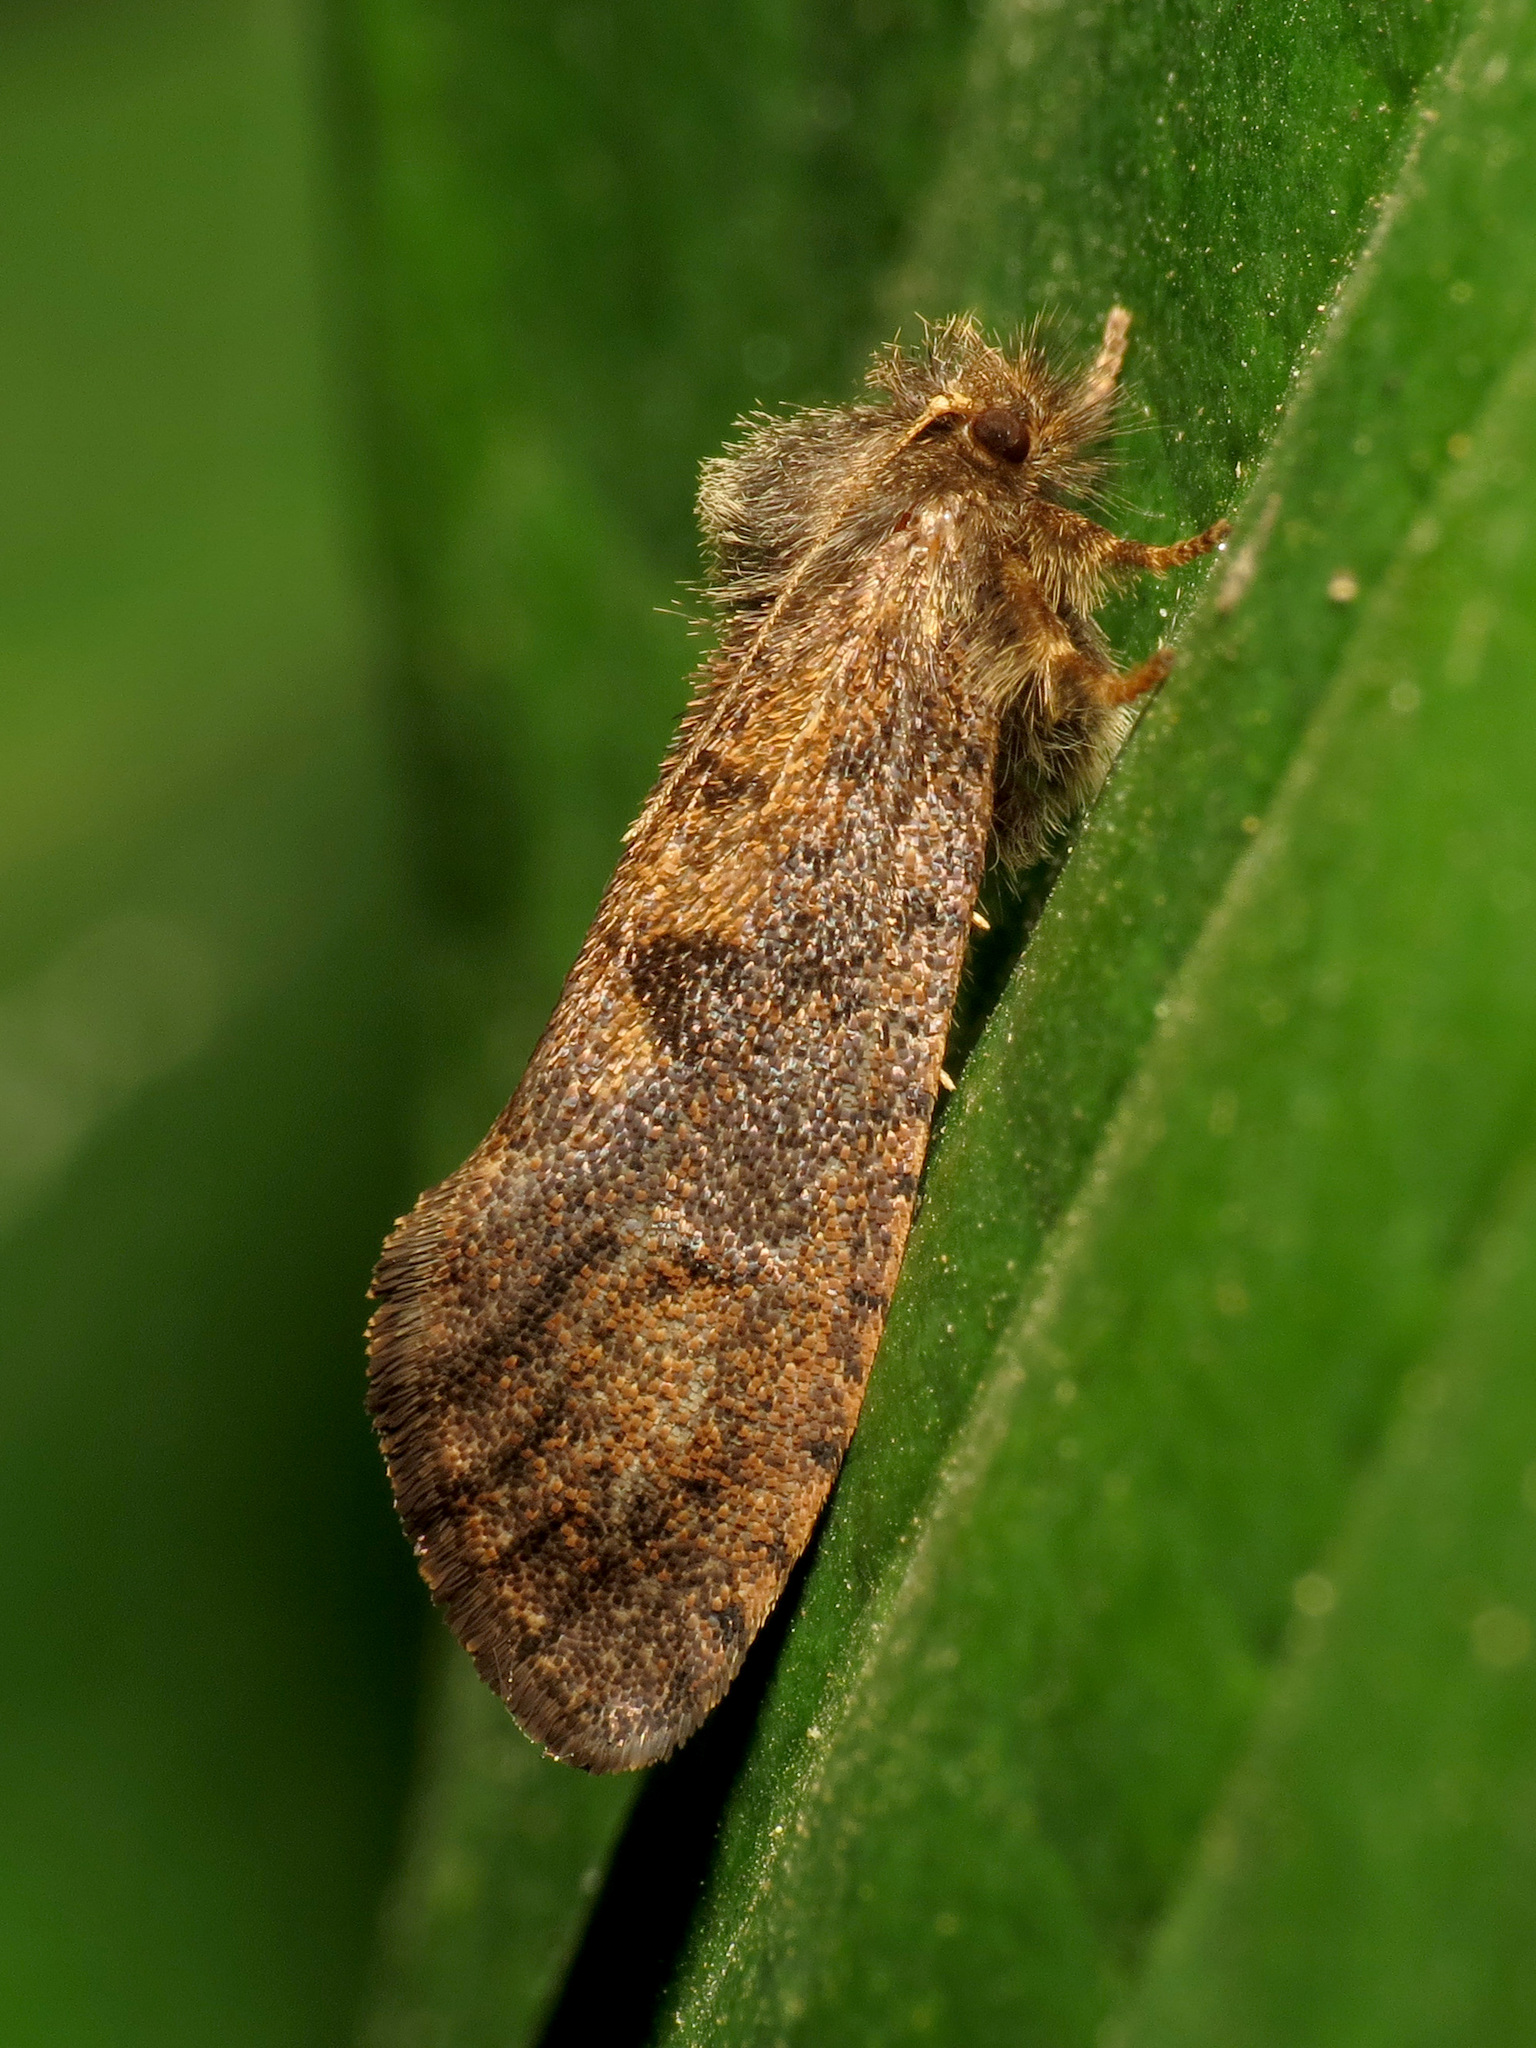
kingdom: Animalia
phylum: Arthropoda
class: Insecta
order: Lepidoptera
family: Tineidae
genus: Acrolophus
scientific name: Acrolophus mora
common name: Dark acrolophus
